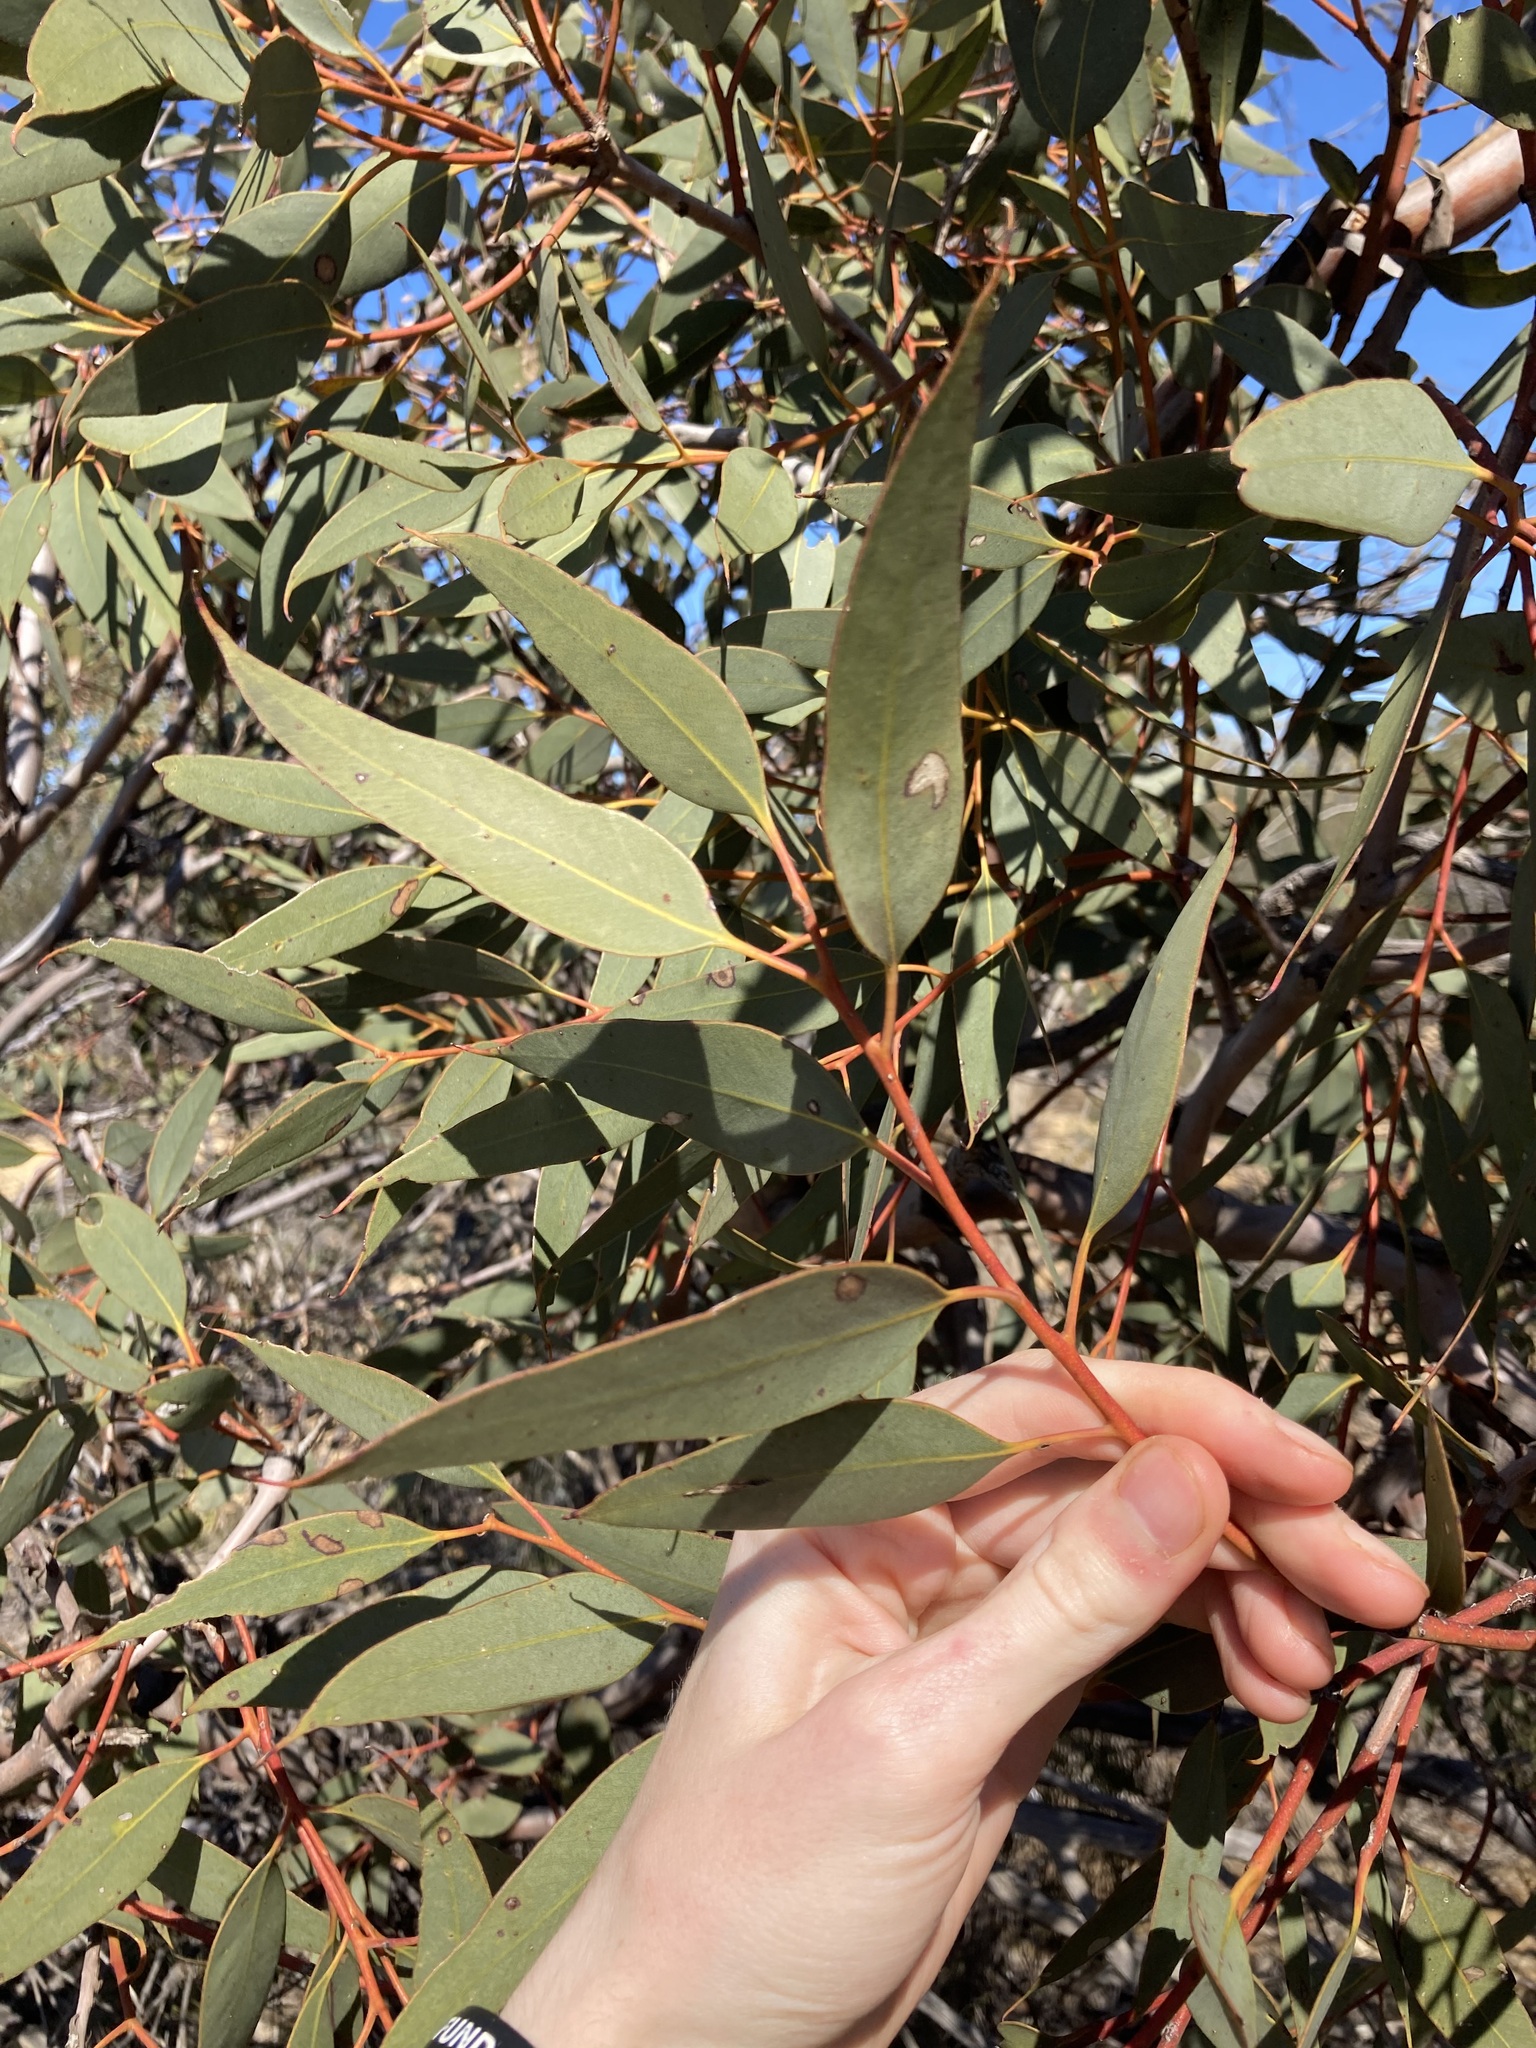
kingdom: Plantae
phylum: Tracheophyta
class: Magnoliopsida
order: Myrtales
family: Myrtaceae
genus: Eucalyptus
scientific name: Eucalyptus burracoppinensis
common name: Burracoppin mallee
